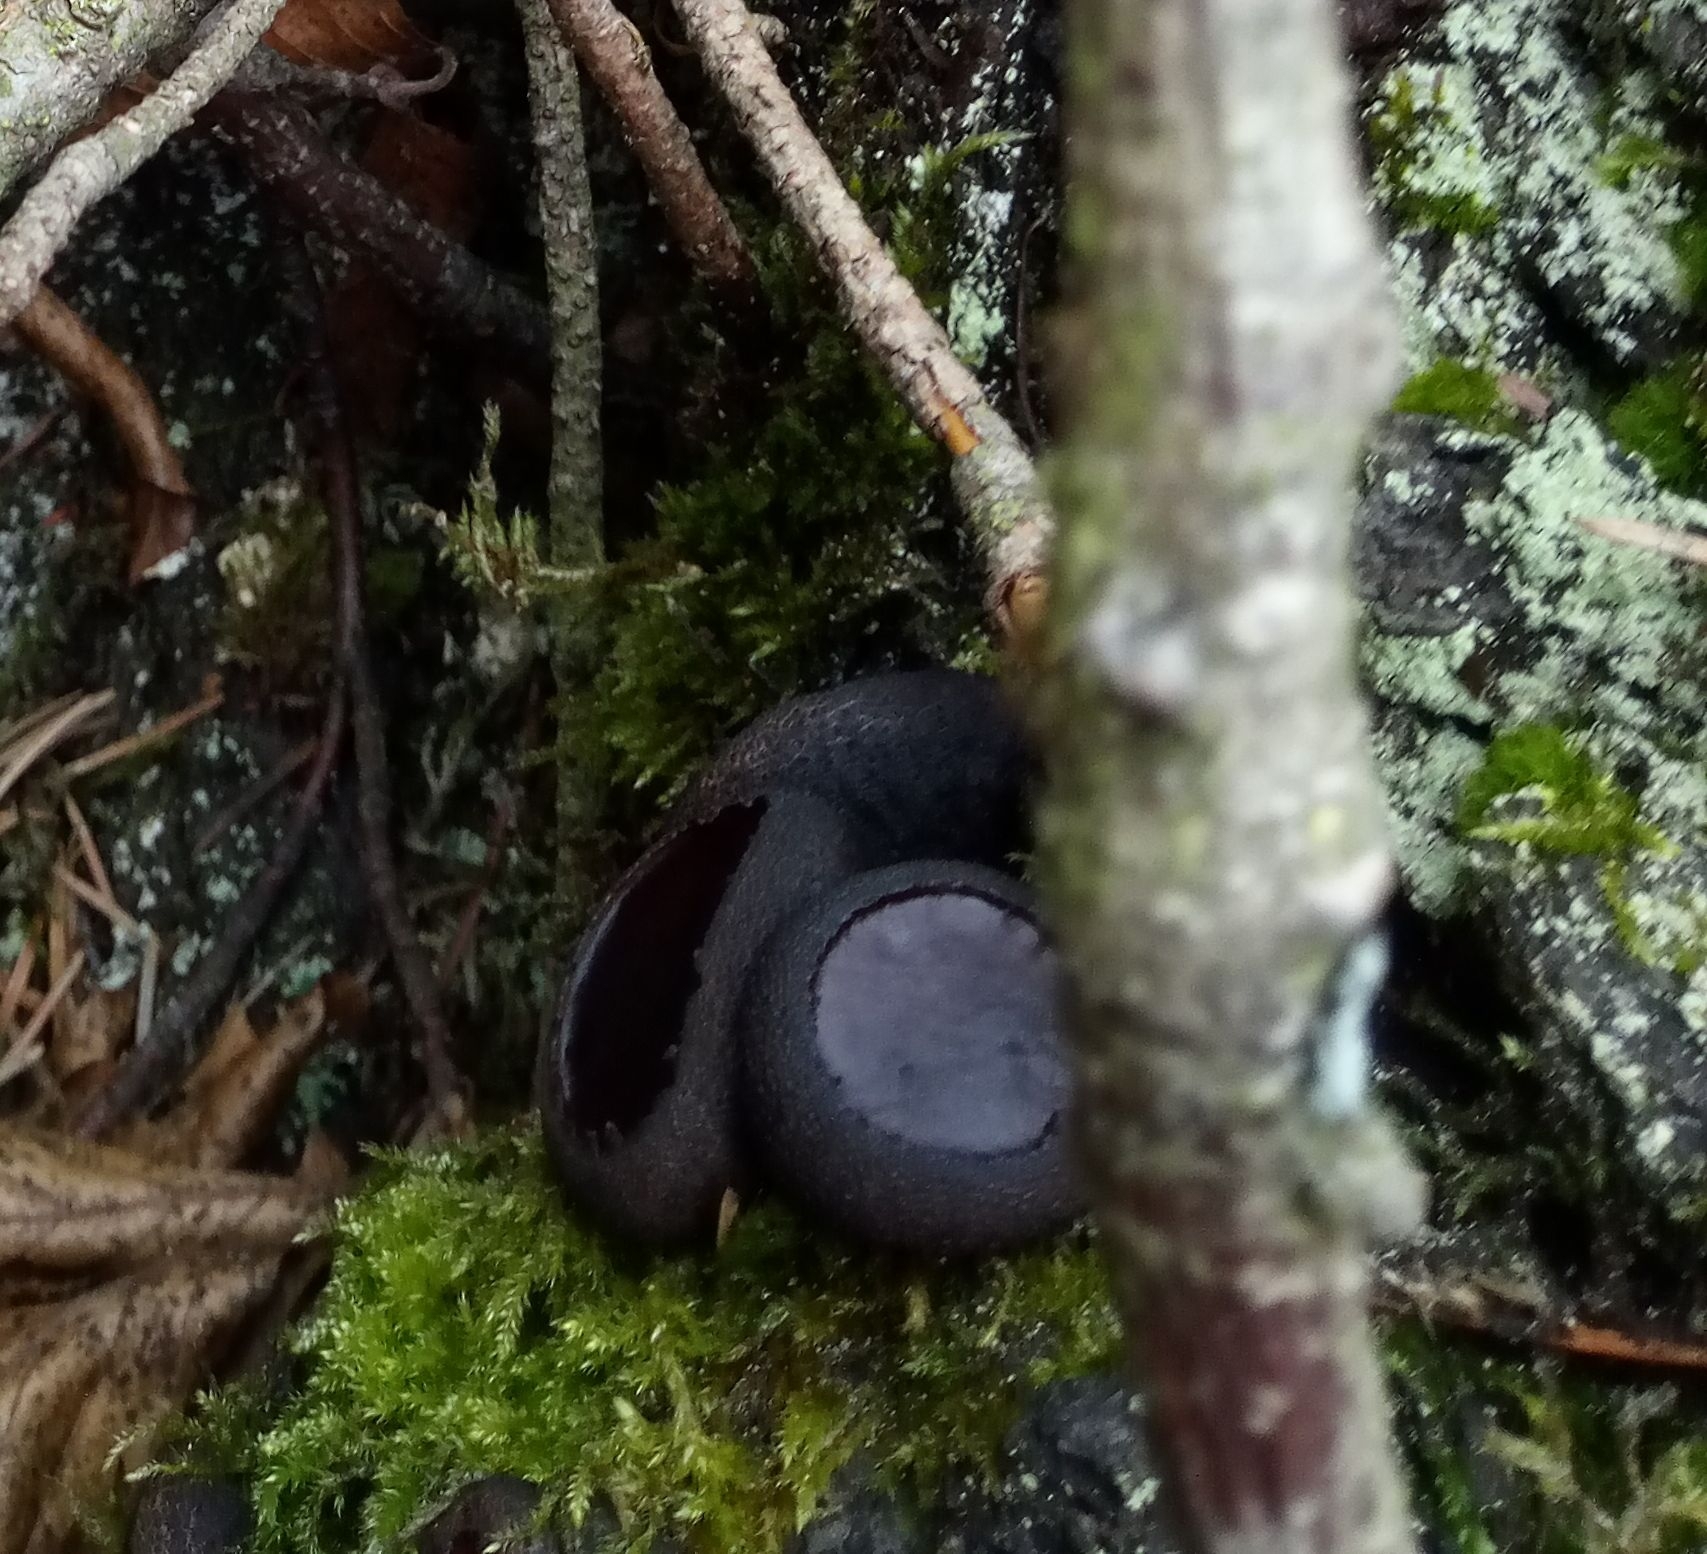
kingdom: Fungi
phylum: Ascomycota
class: Leotiomycetes
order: Phacidiales
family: Phacidiaceae
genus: Bulgaria
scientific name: Bulgaria inquinans
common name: Black bulgar
